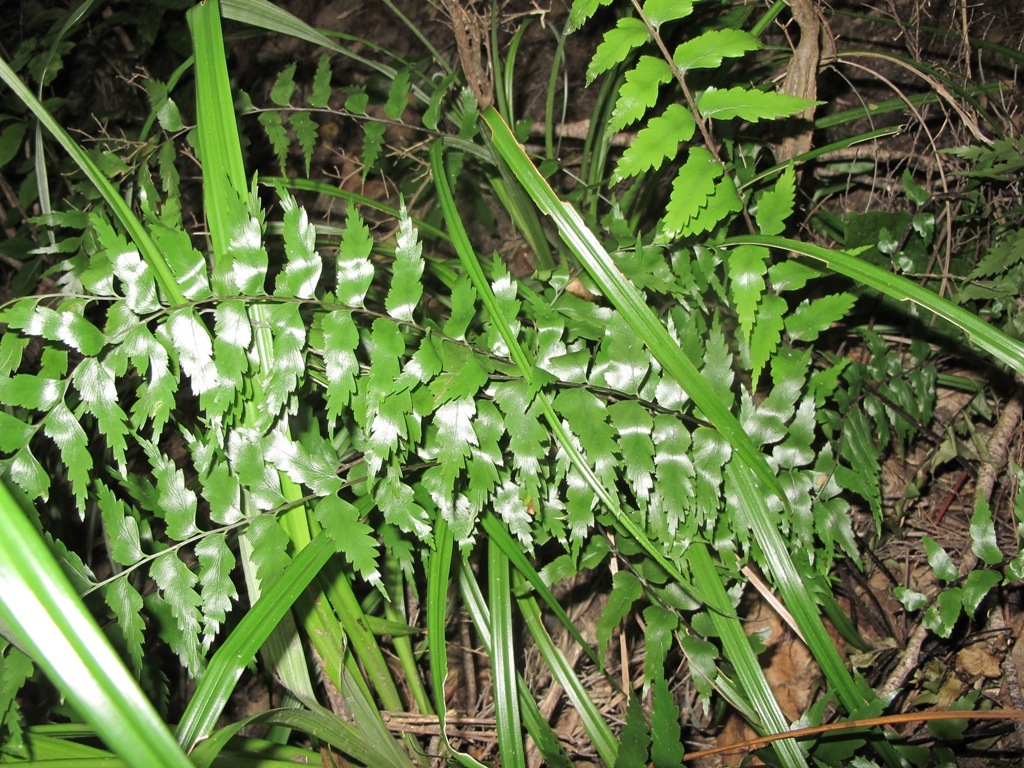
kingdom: Plantae
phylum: Tracheophyta
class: Polypodiopsida
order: Polypodiales
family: Aspleniaceae
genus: Asplenium
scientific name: Asplenium polyodon
